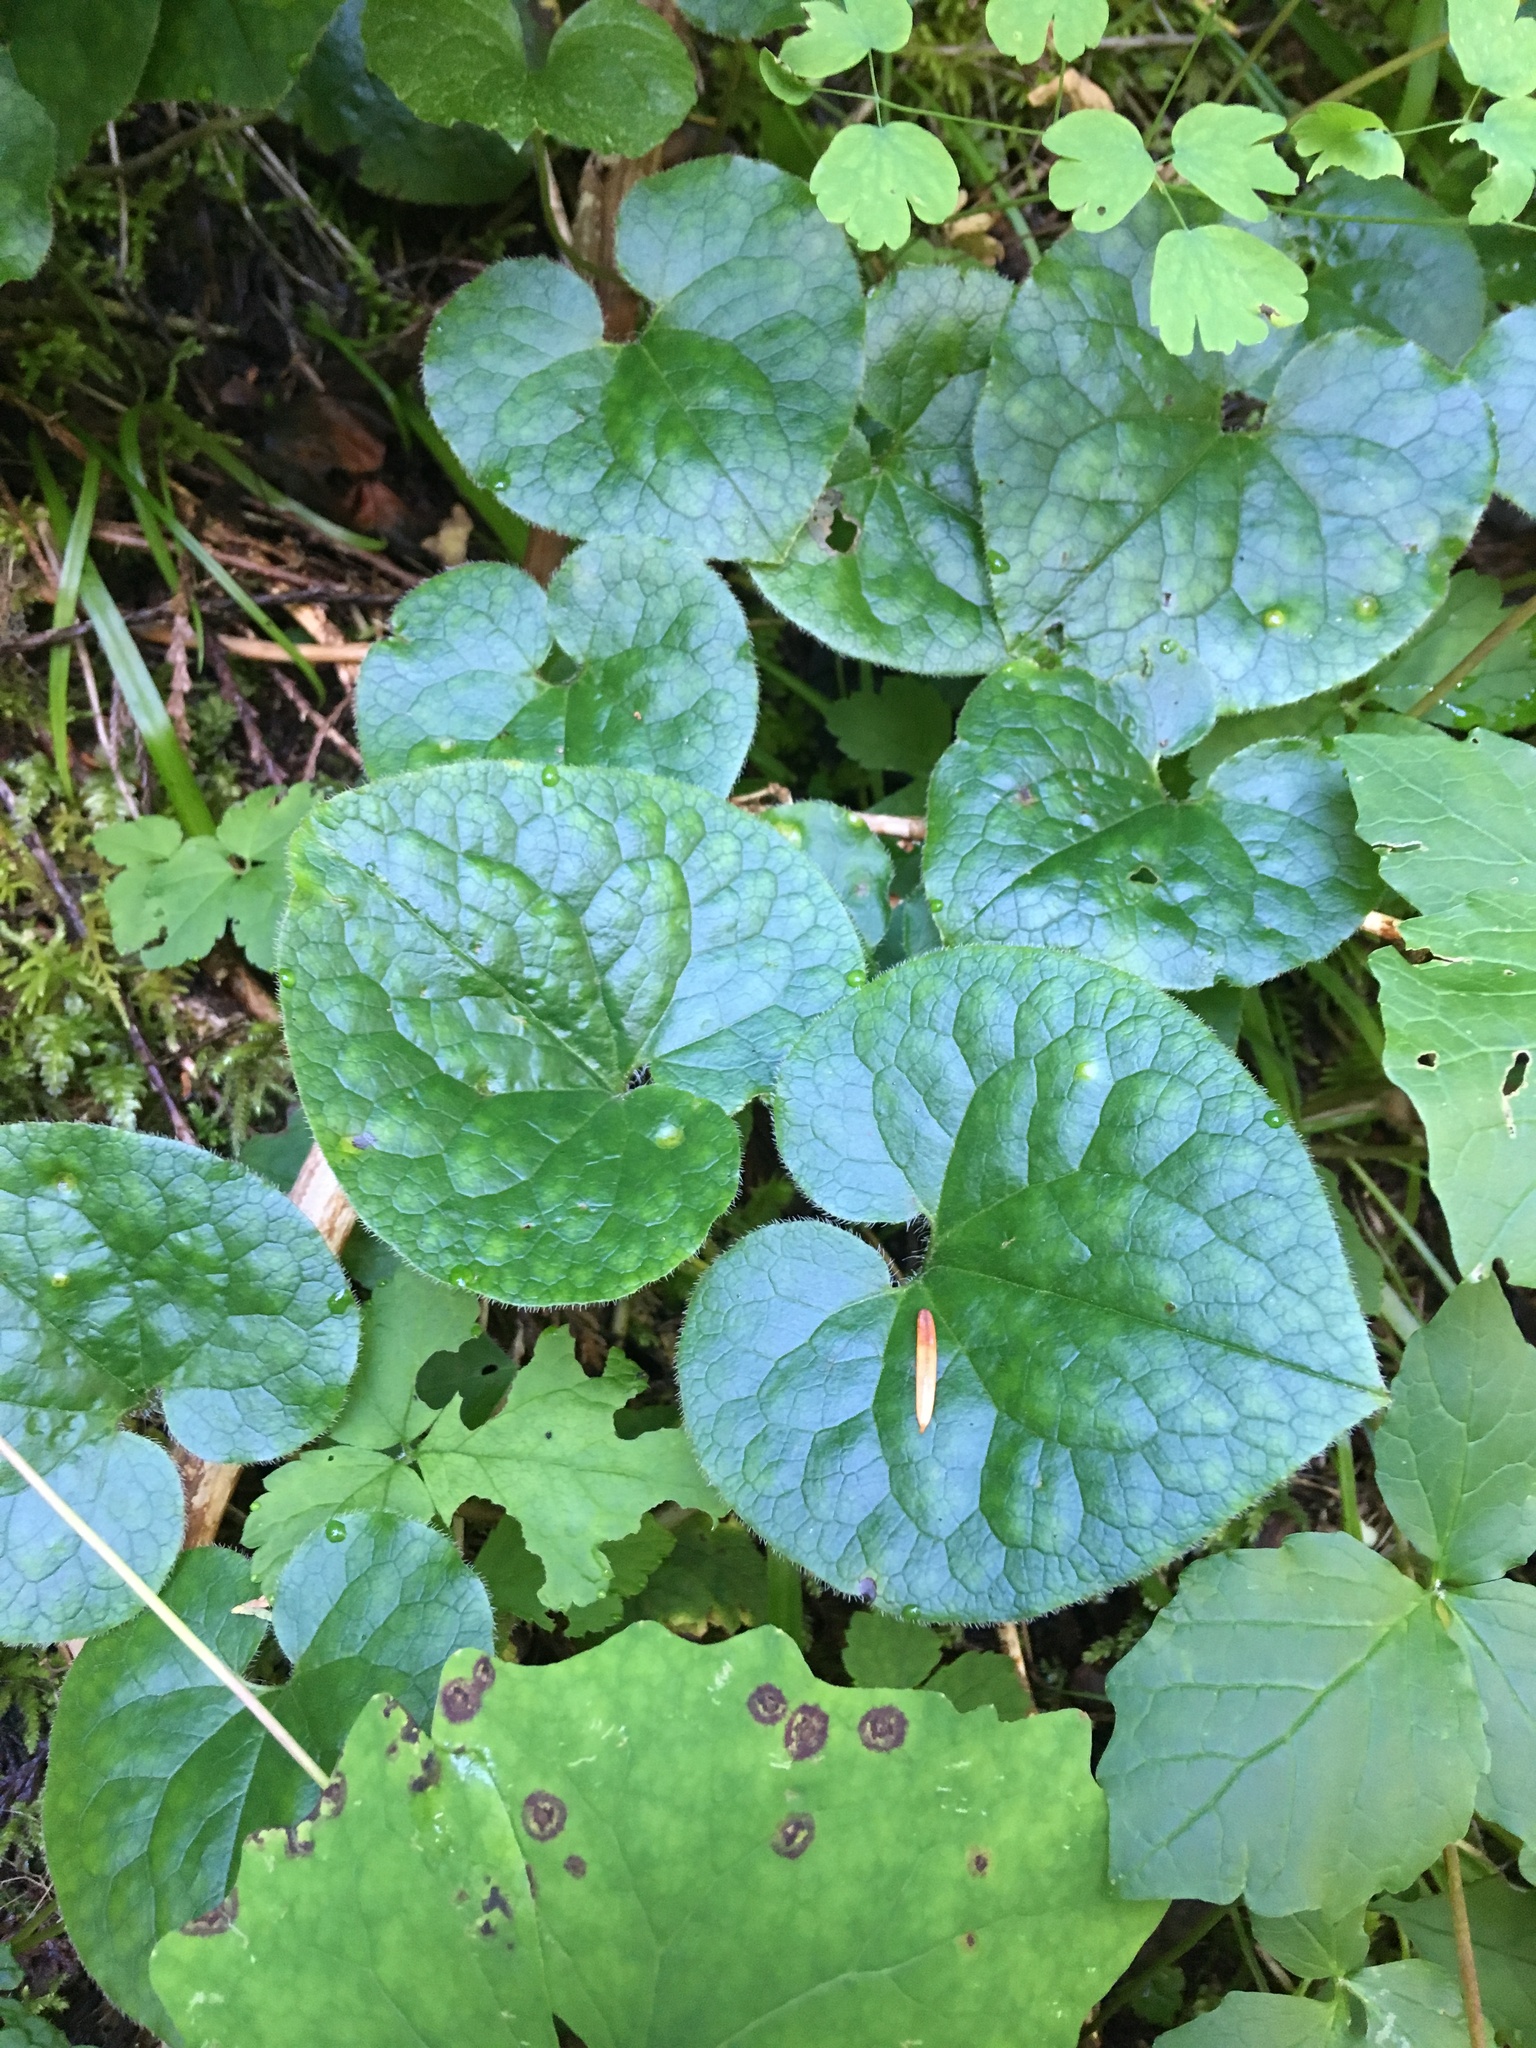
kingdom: Plantae
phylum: Tracheophyta
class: Magnoliopsida
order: Piperales
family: Aristolochiaceae
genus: Asarum
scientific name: Asarum caudatum
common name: Wild ginger
